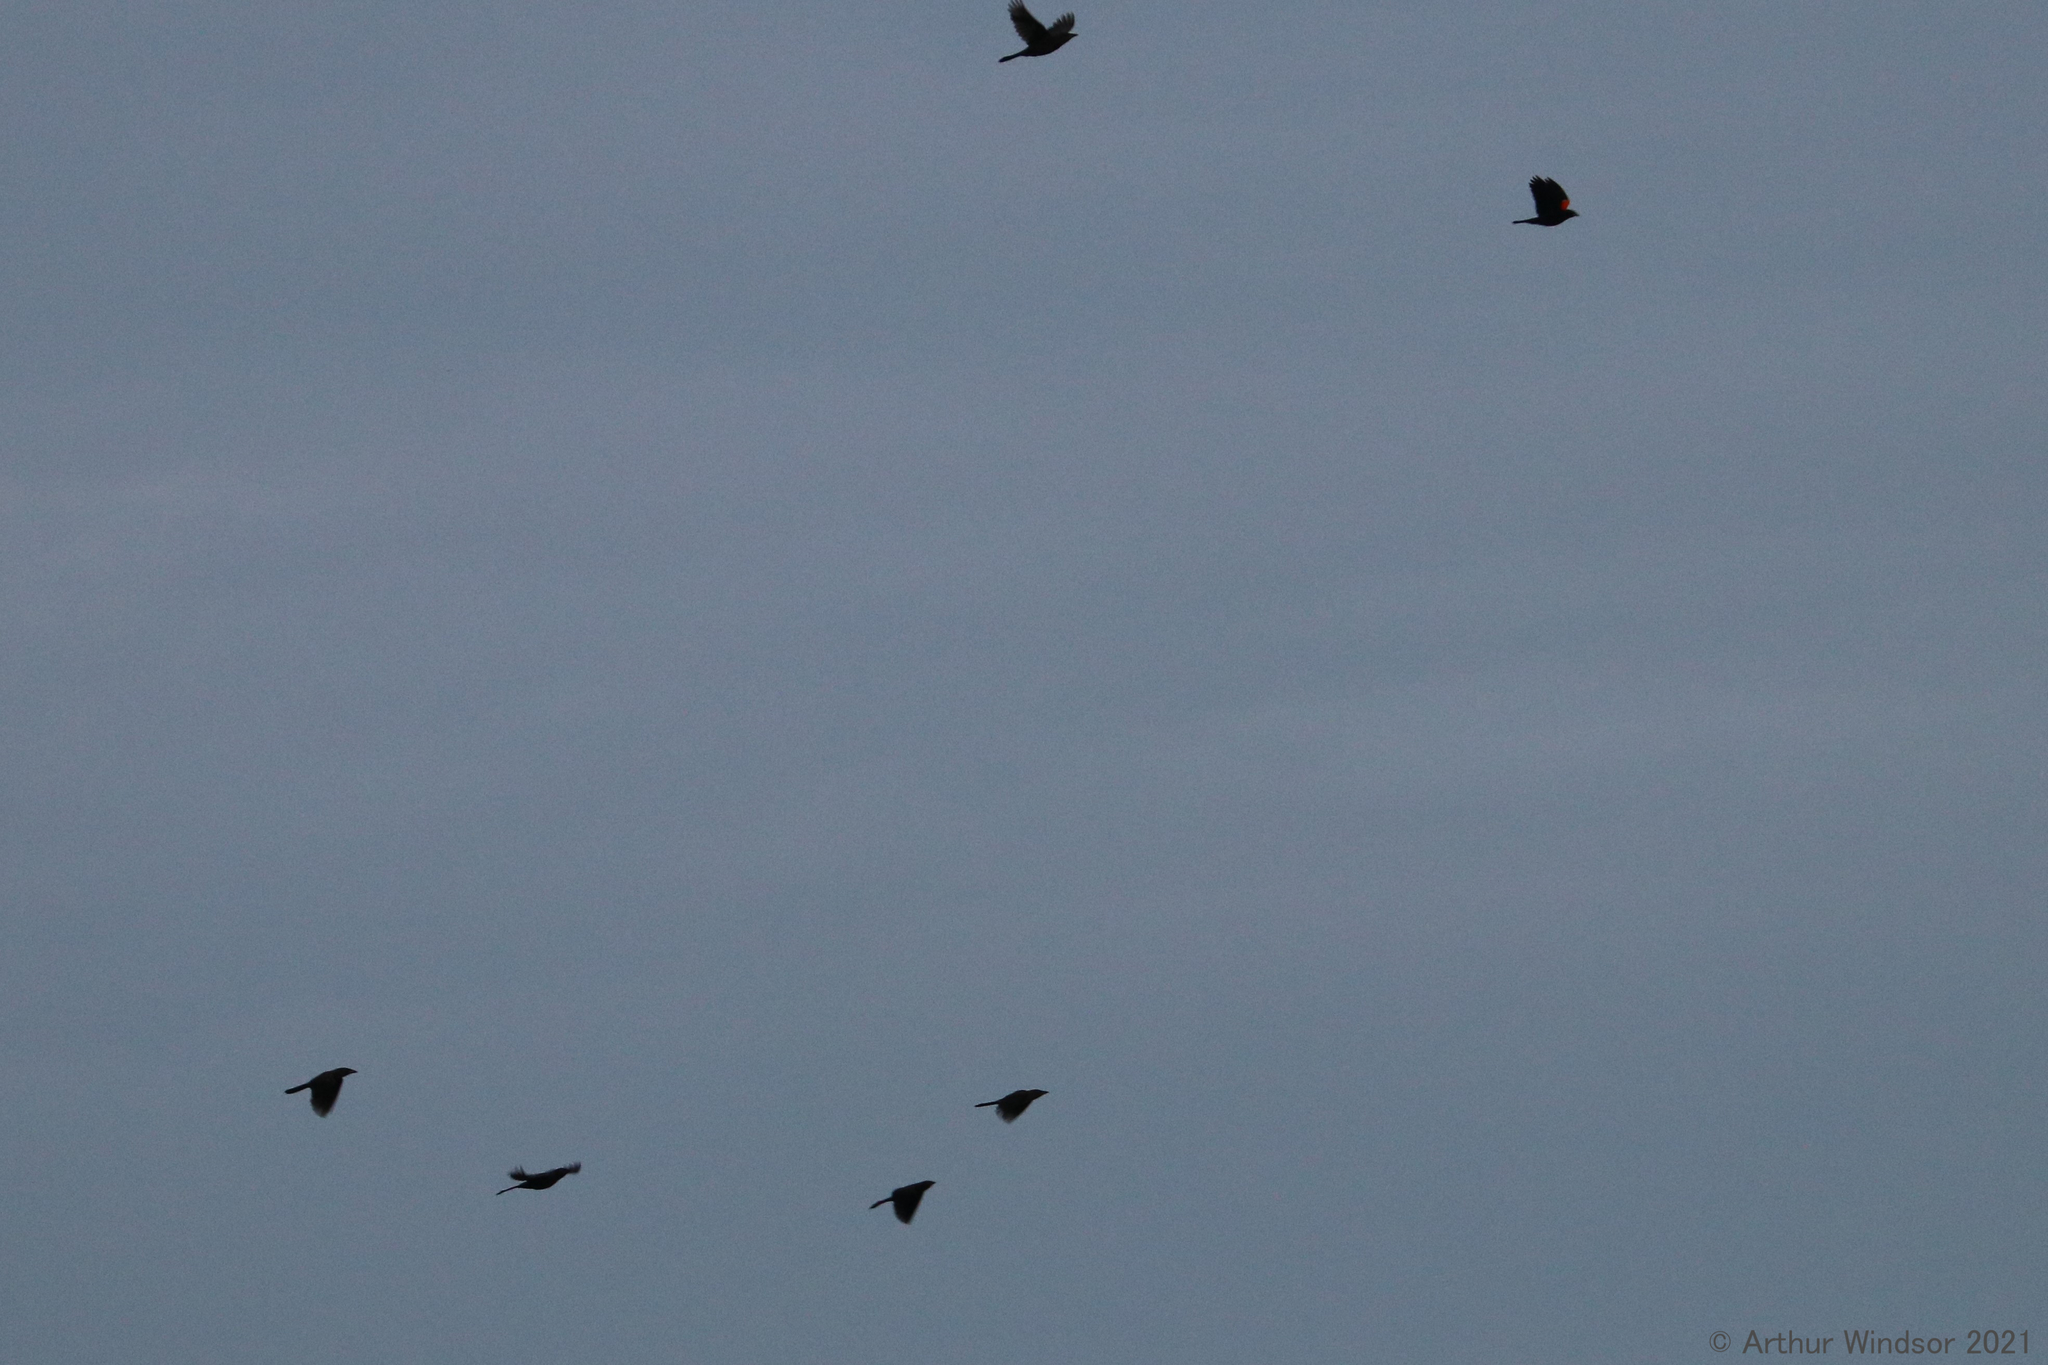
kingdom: Animalia
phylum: Chordata
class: Aves
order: Passeriformes
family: Icteridae
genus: Agelaius
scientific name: Agelaius phoeniceus
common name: Red-winged blackbird
